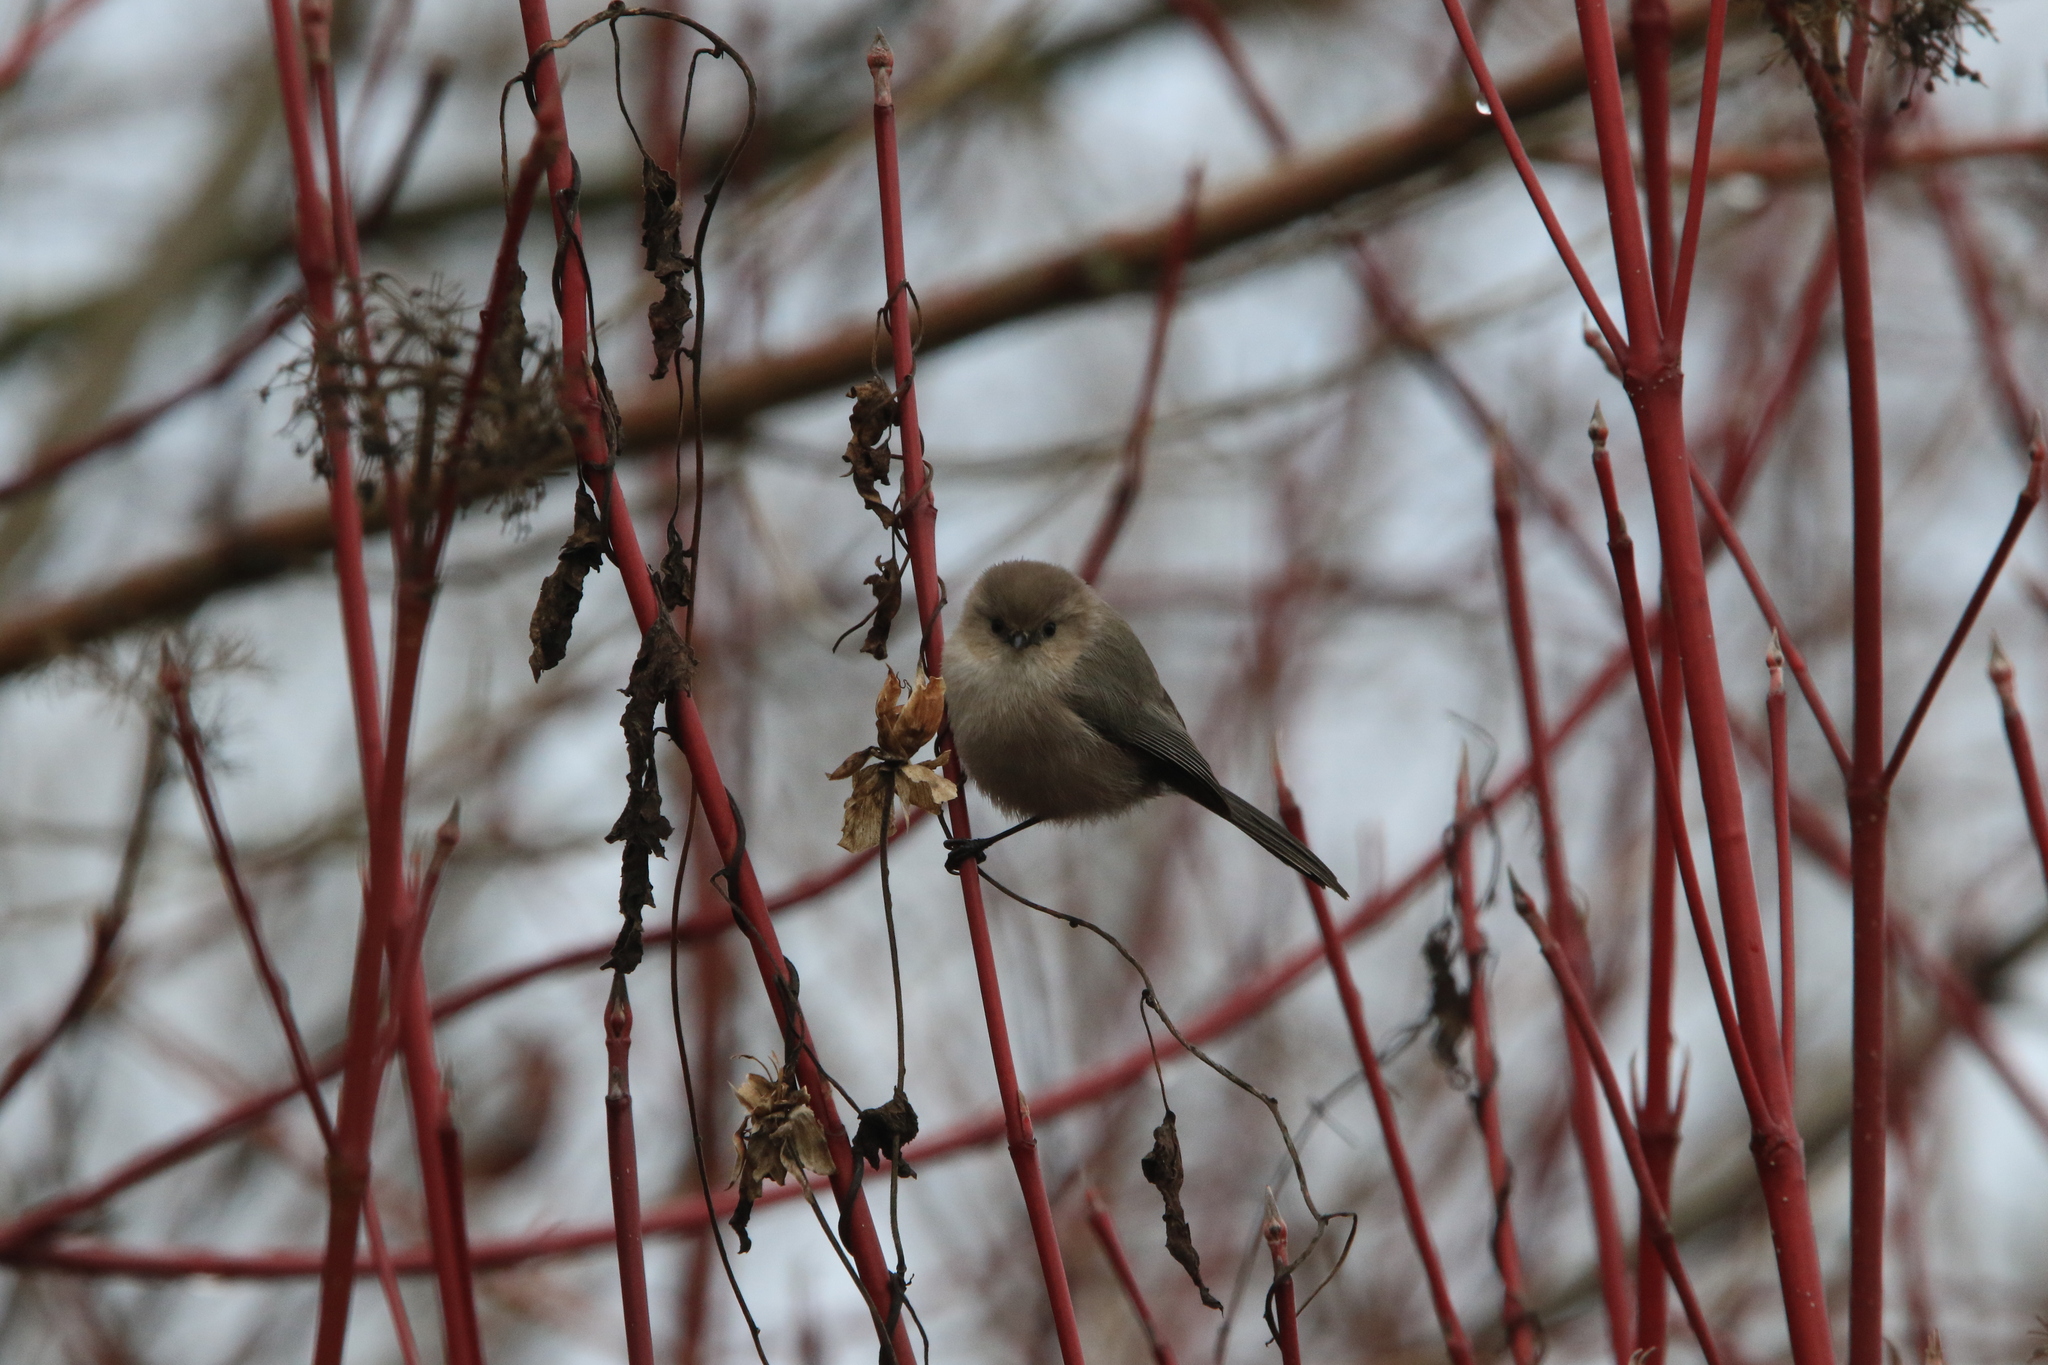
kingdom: Animalia
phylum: Chordata
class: Aves
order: Passeriformes
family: Aegithalidae
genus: Psaltriparus
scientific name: Psaltriparus minimus
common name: American bushtit
